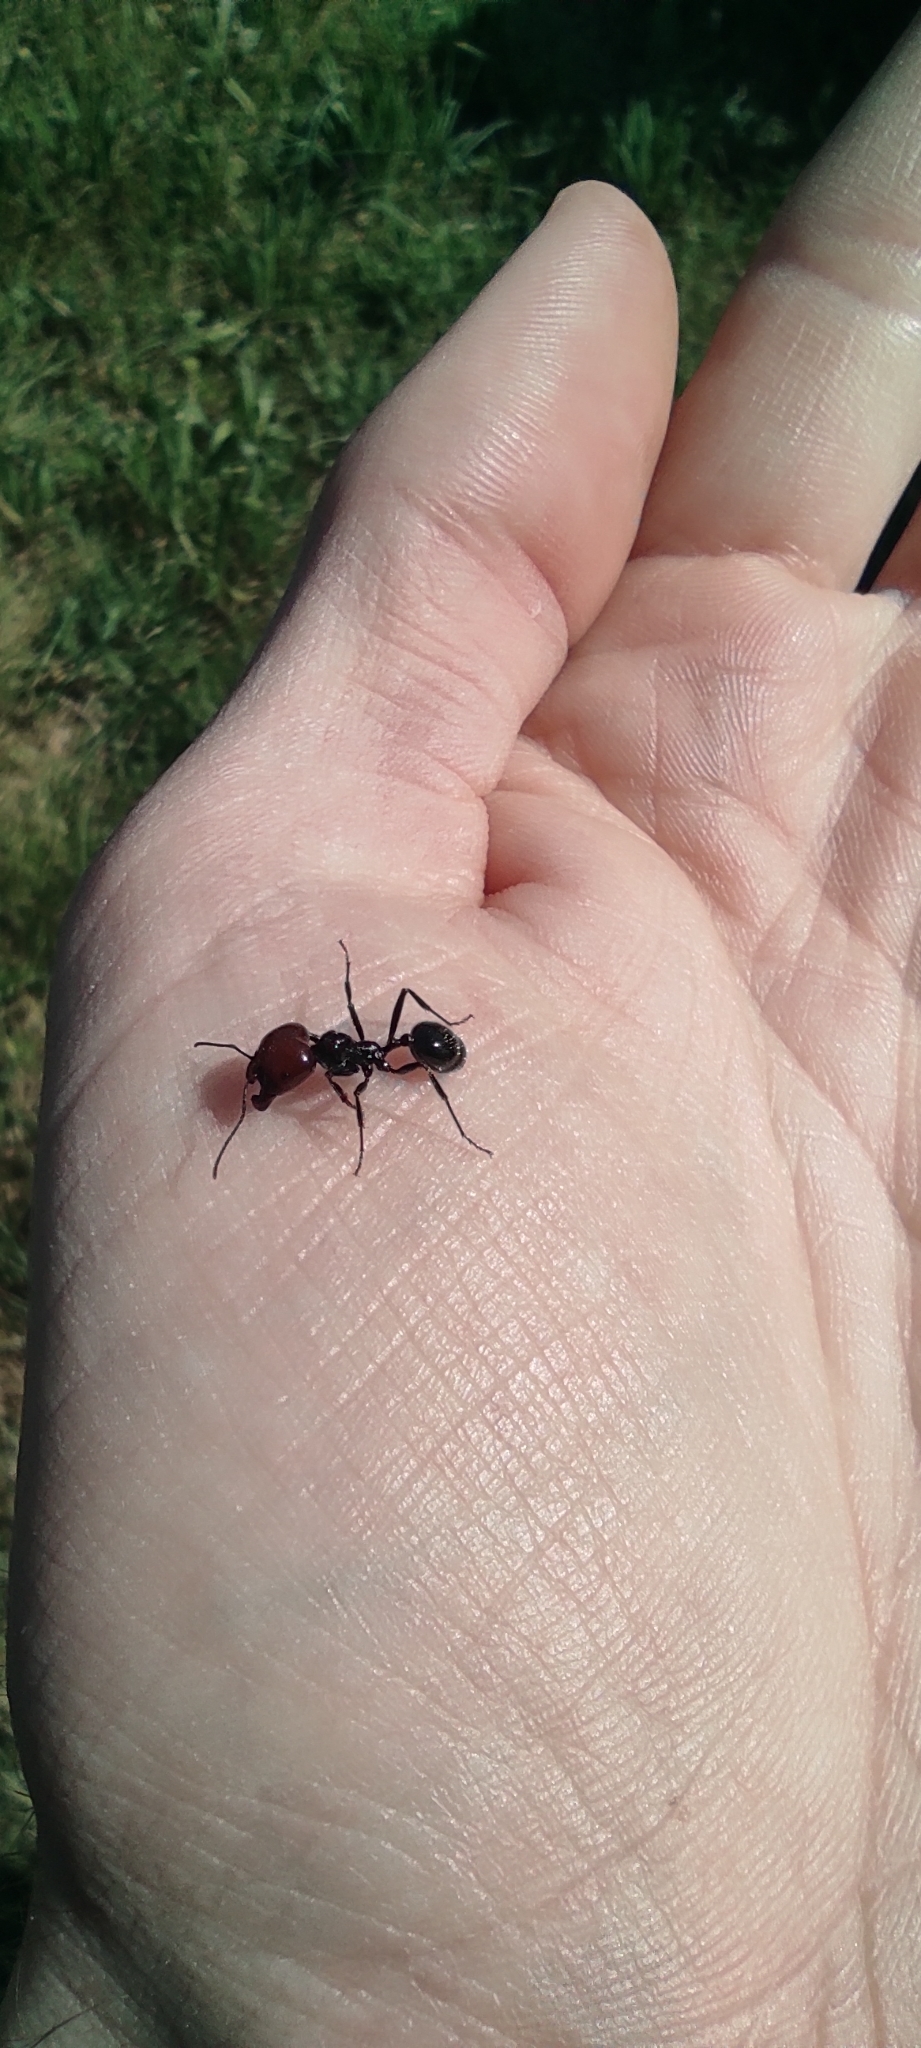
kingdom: Animalia
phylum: Arthropoda
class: Insecta
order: Hymenoptera
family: Formicidae
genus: Messor
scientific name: Messor barbarus
